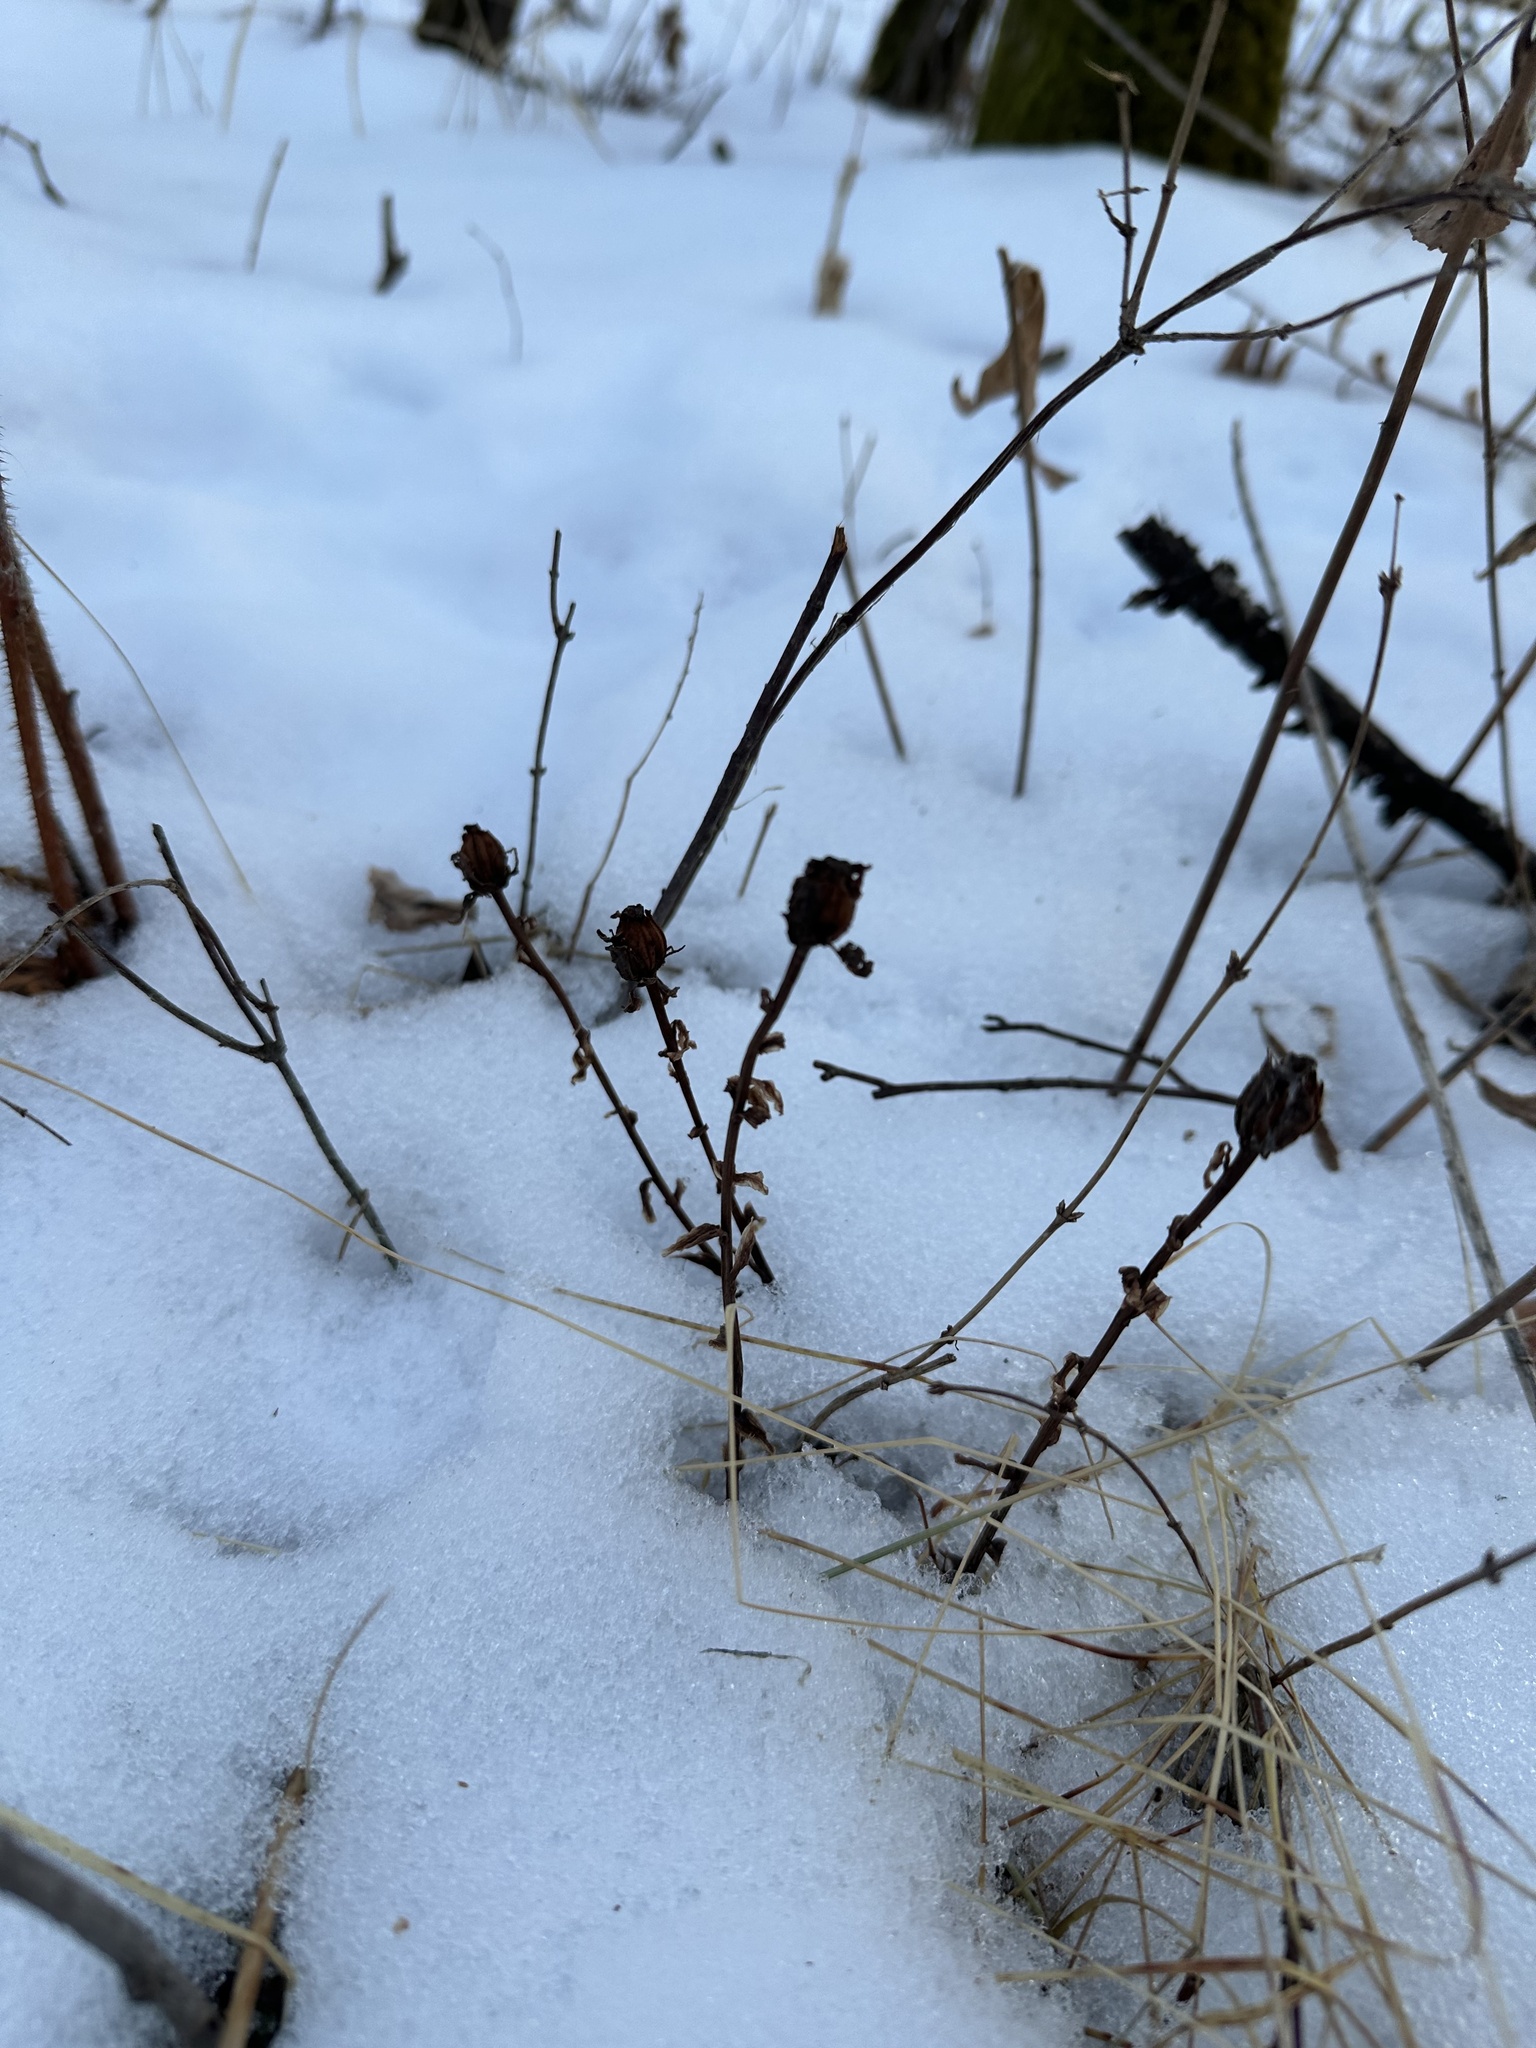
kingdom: Plantae
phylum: Tracheophyta
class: Magnoliopsida
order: Ericales
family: Ericaceae
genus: Monotropa
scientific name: Monotropa uniflora
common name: Convulsion root
